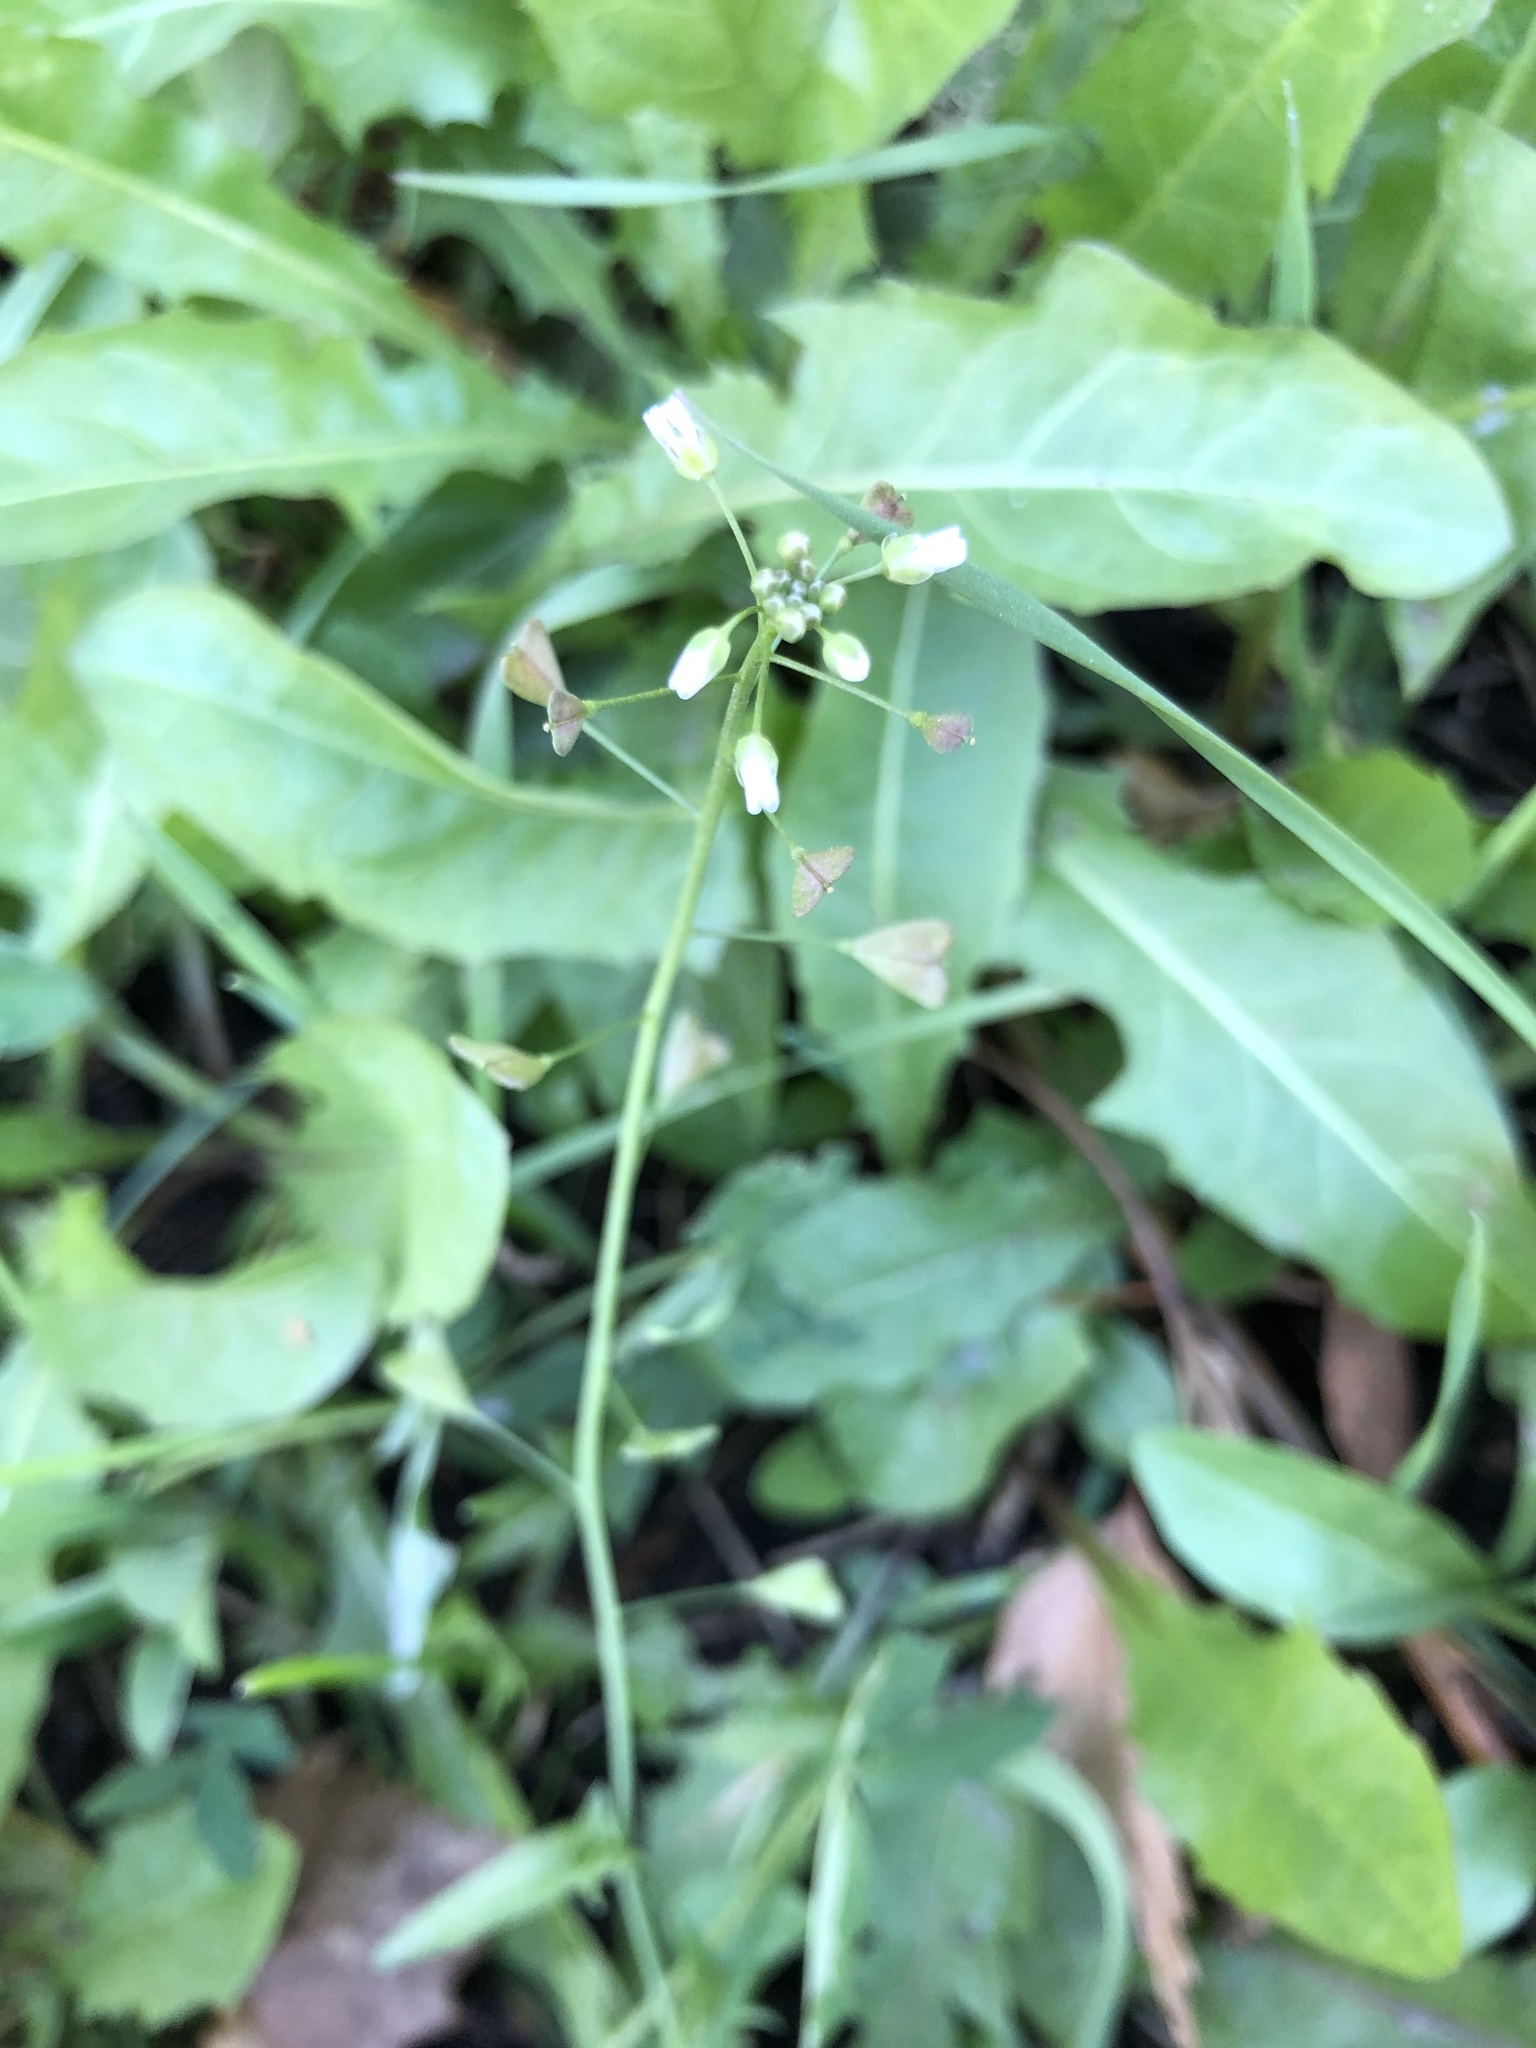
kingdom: Plantae
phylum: Tracheophyta
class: Magnoliopsida
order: Brassicales
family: Brassicaceae
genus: Capsella
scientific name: Capsella bursa-pastoris
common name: Shepherd's purse
